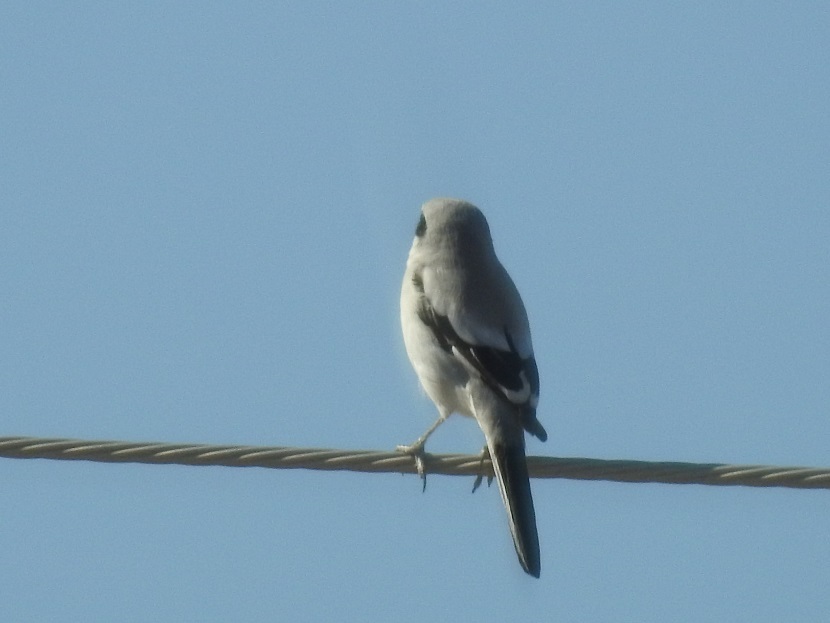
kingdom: Animalia
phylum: Chordata
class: Aves
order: Passeriformes
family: Laniidae
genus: Lanius
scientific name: Lanius excubitor
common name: Great grey shrike
